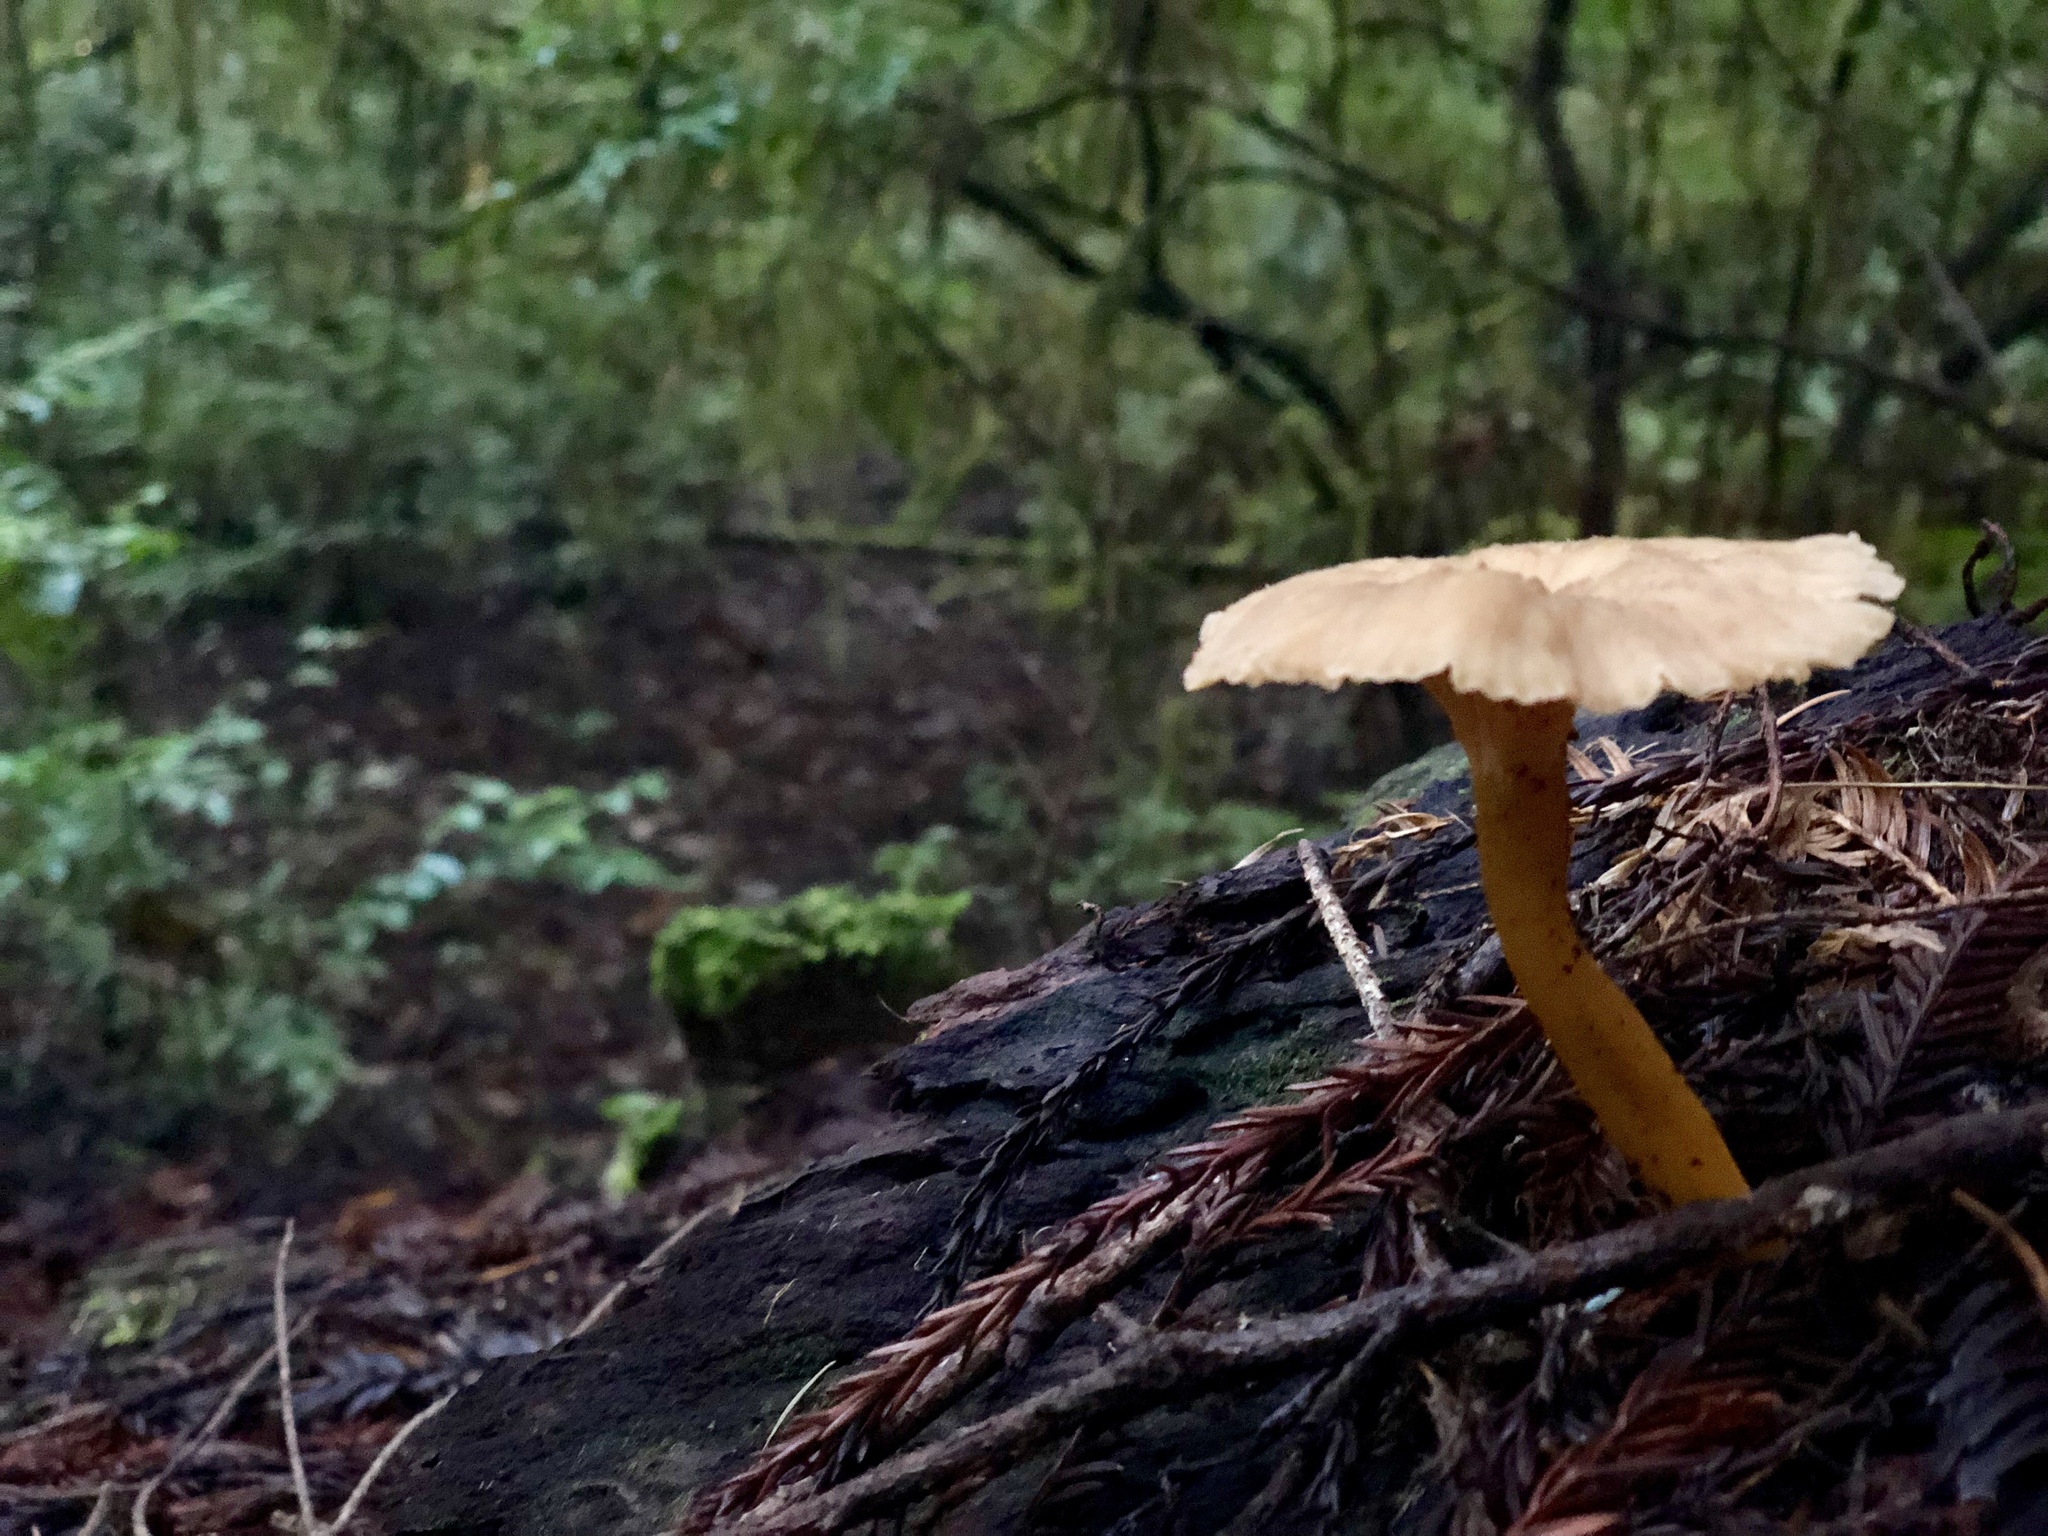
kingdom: Fungi
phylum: Basidiomycota
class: Agaricomycetes
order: Cantharellales
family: Hydnaceae
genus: Craterellus
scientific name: Craterellus tubaeformis
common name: Yellowfoot
